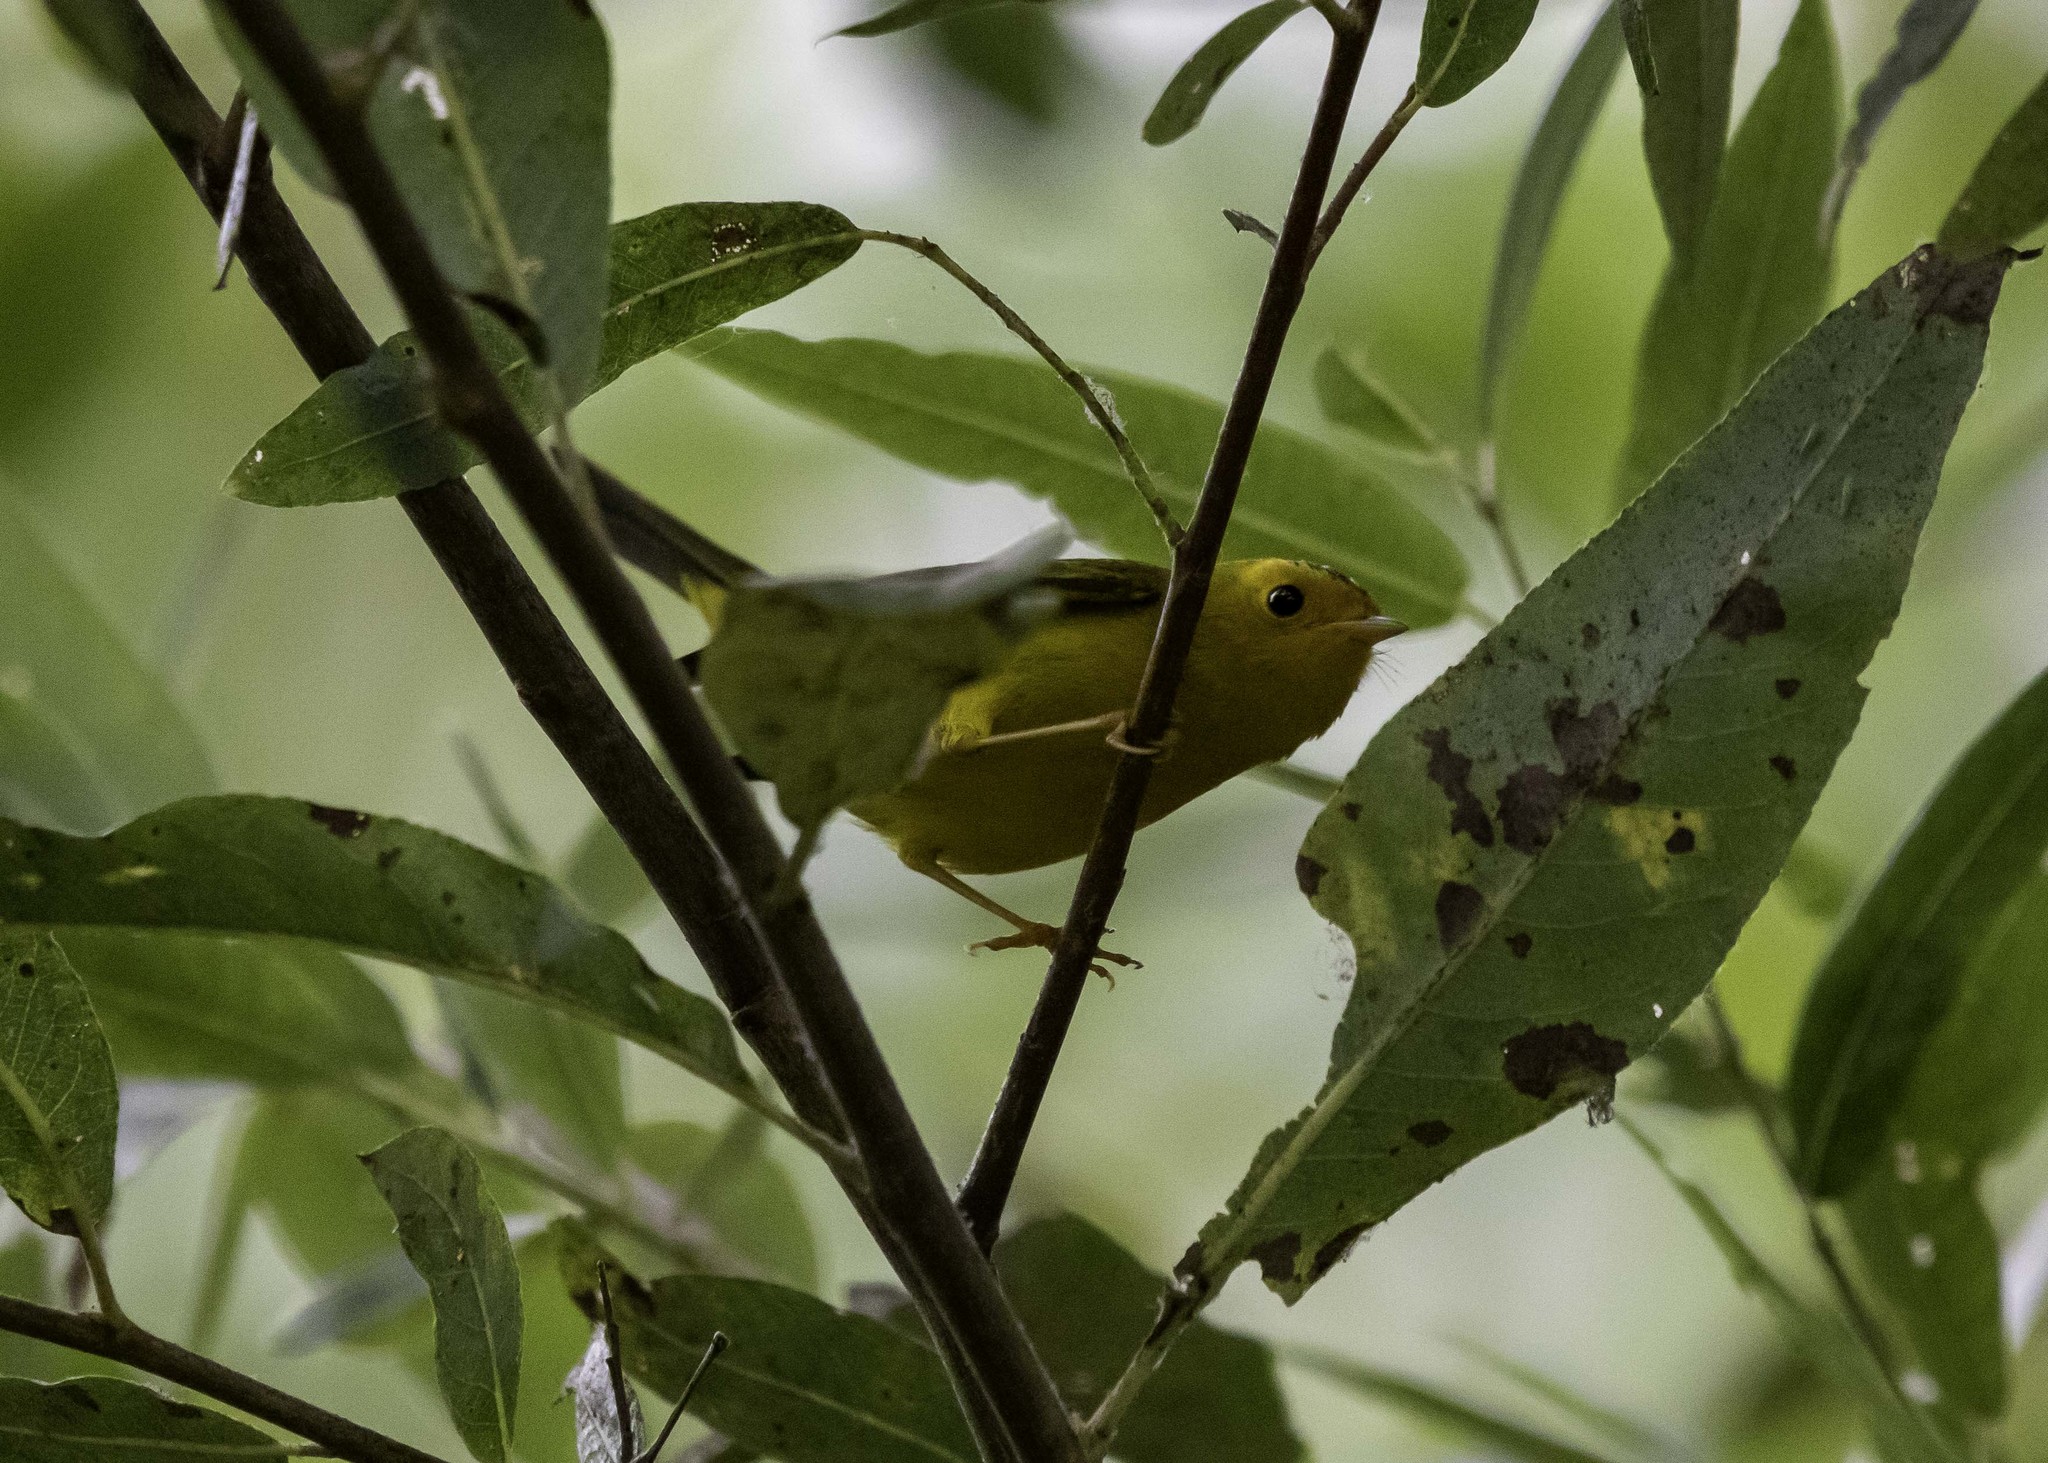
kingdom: Animalia
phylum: Chordata
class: Aves
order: Passeriformes
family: Parulidae
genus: Cardellina
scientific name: Cardellina pusilla
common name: Wilson's warbler
